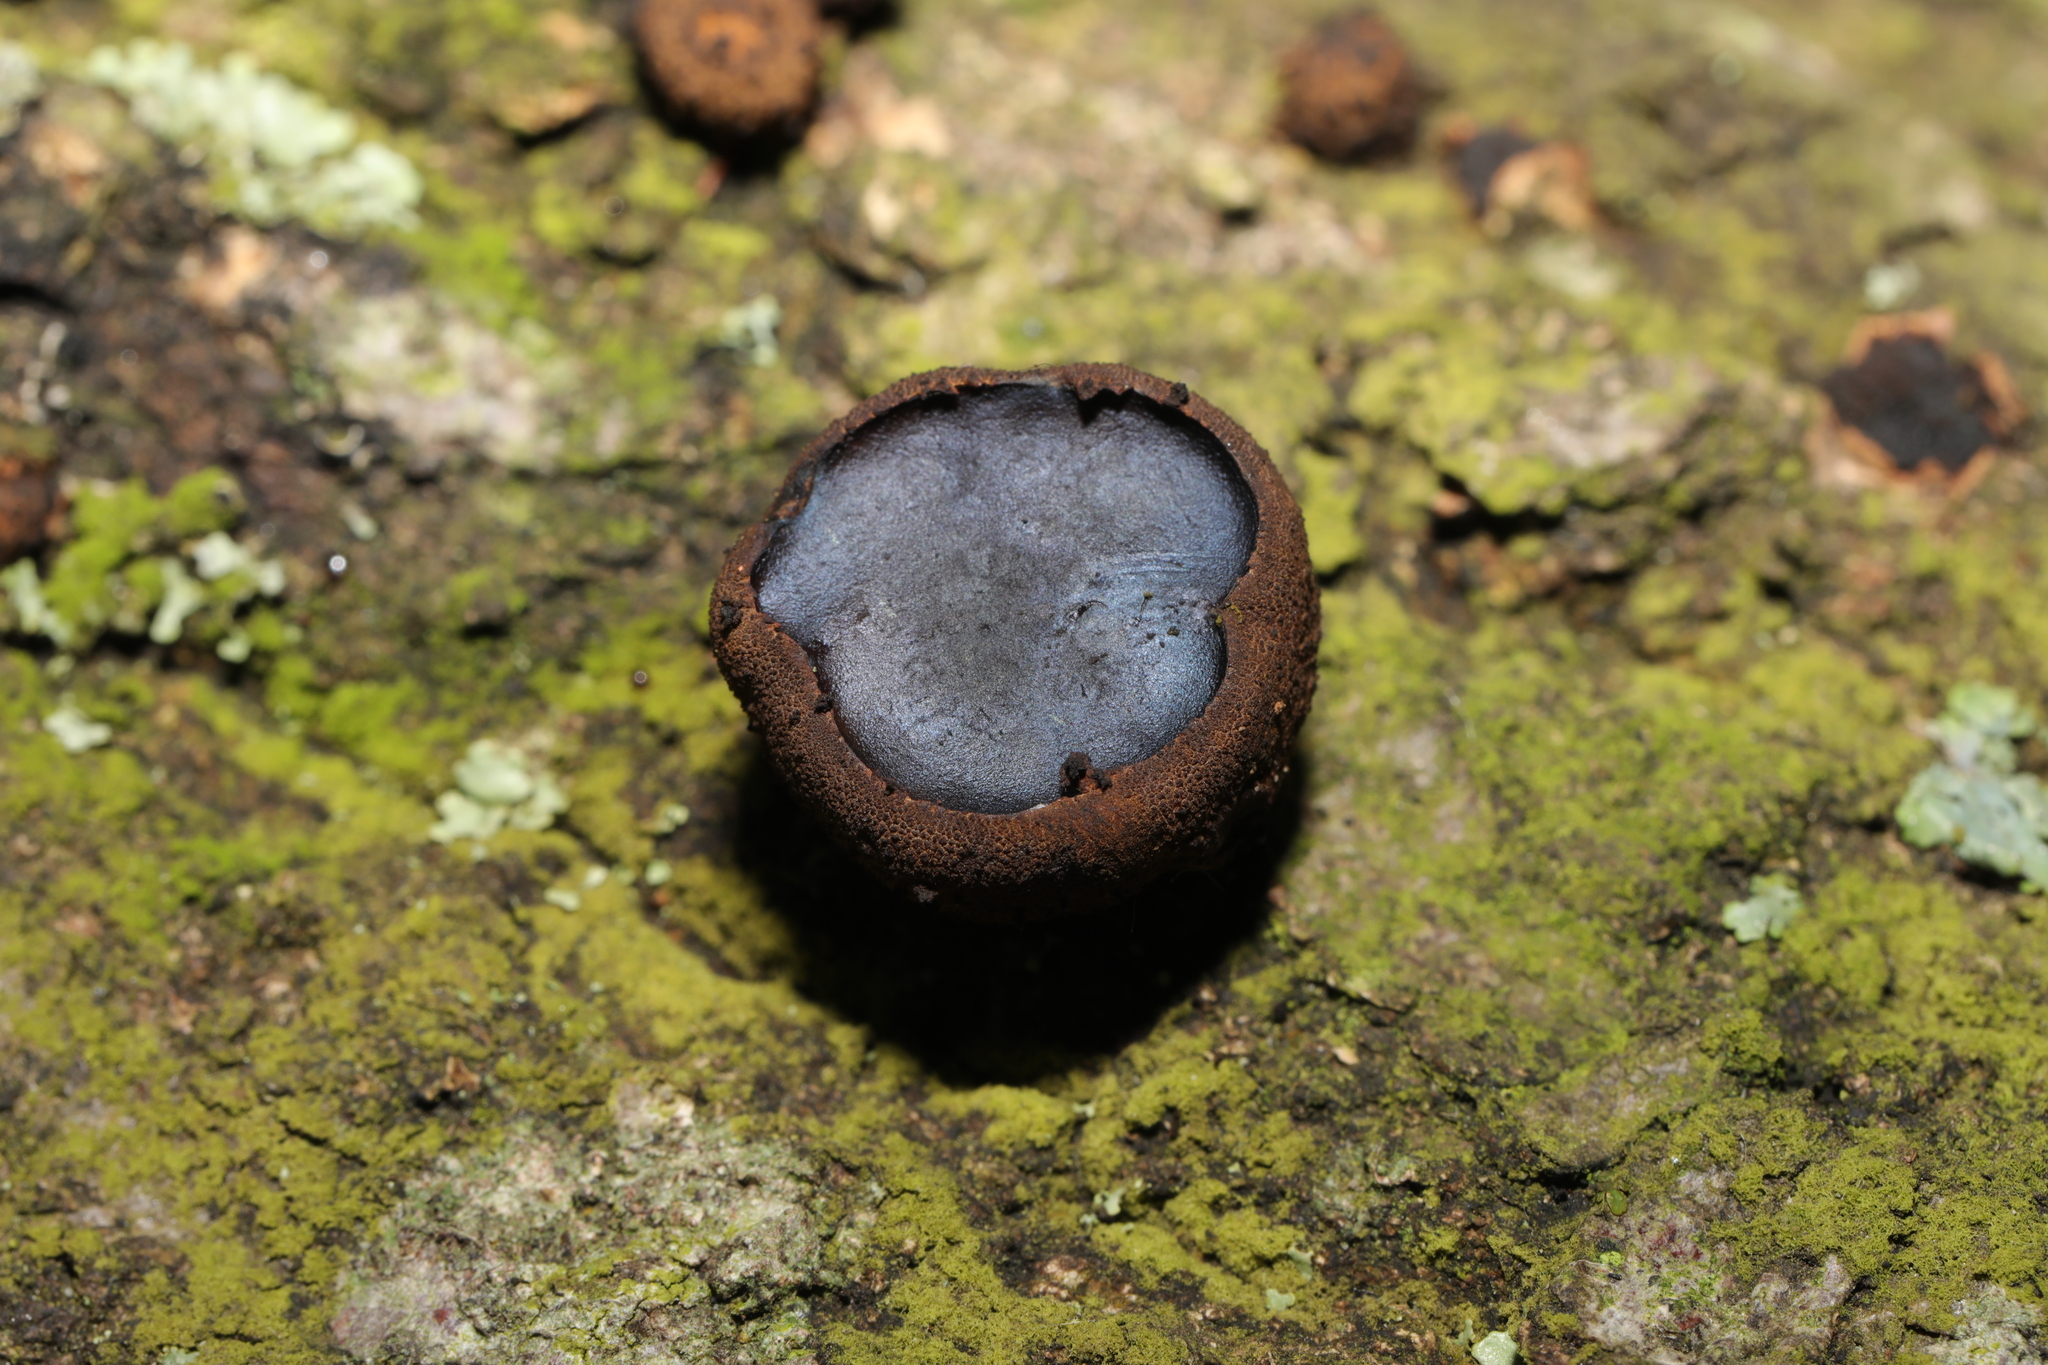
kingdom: Fungi
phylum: Ascomycota
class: Leotiomycetes
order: Phacidiales
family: Phacidiaceae
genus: Bulgaria
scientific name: Bulgaria inquinans
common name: Black bulgar
